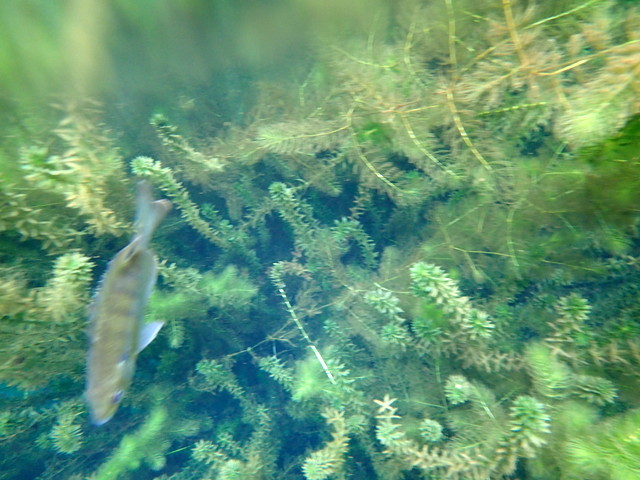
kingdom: Animalia
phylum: Chordata
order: Perciformes
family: Centrarchidae
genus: Lepomis
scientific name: Lepomis macrochirus
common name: Bluegill
